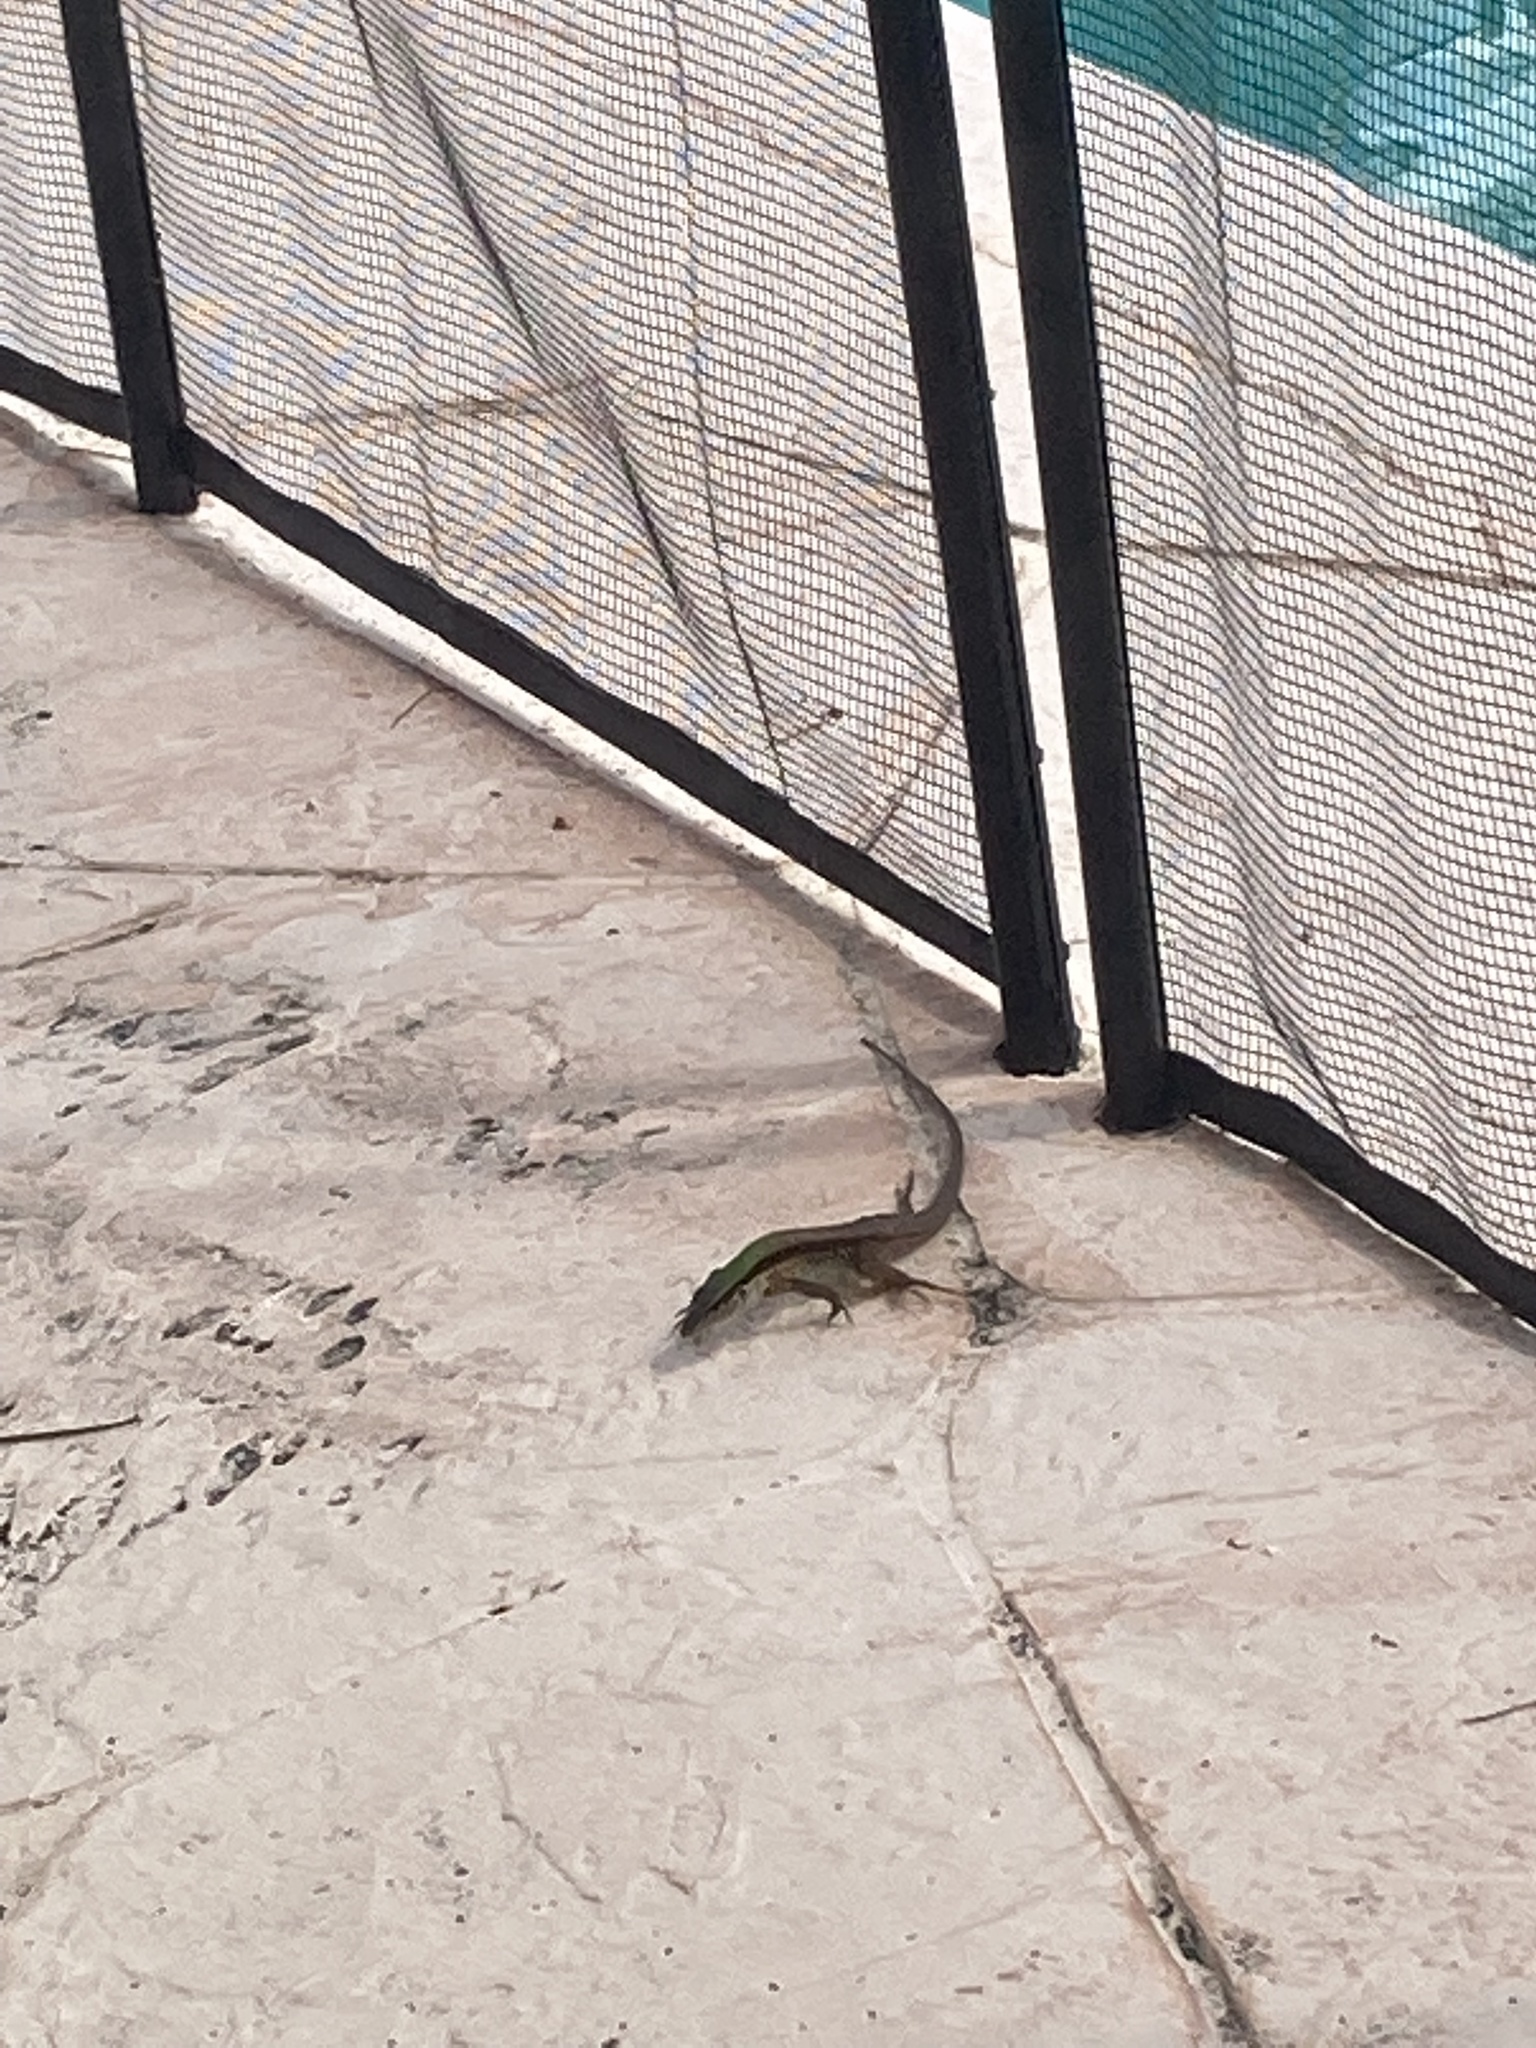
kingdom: Animalia
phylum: Chordata
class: Squamata
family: Teiidae
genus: Ameiva
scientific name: Ameiva ameiva
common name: Giant ameiva
